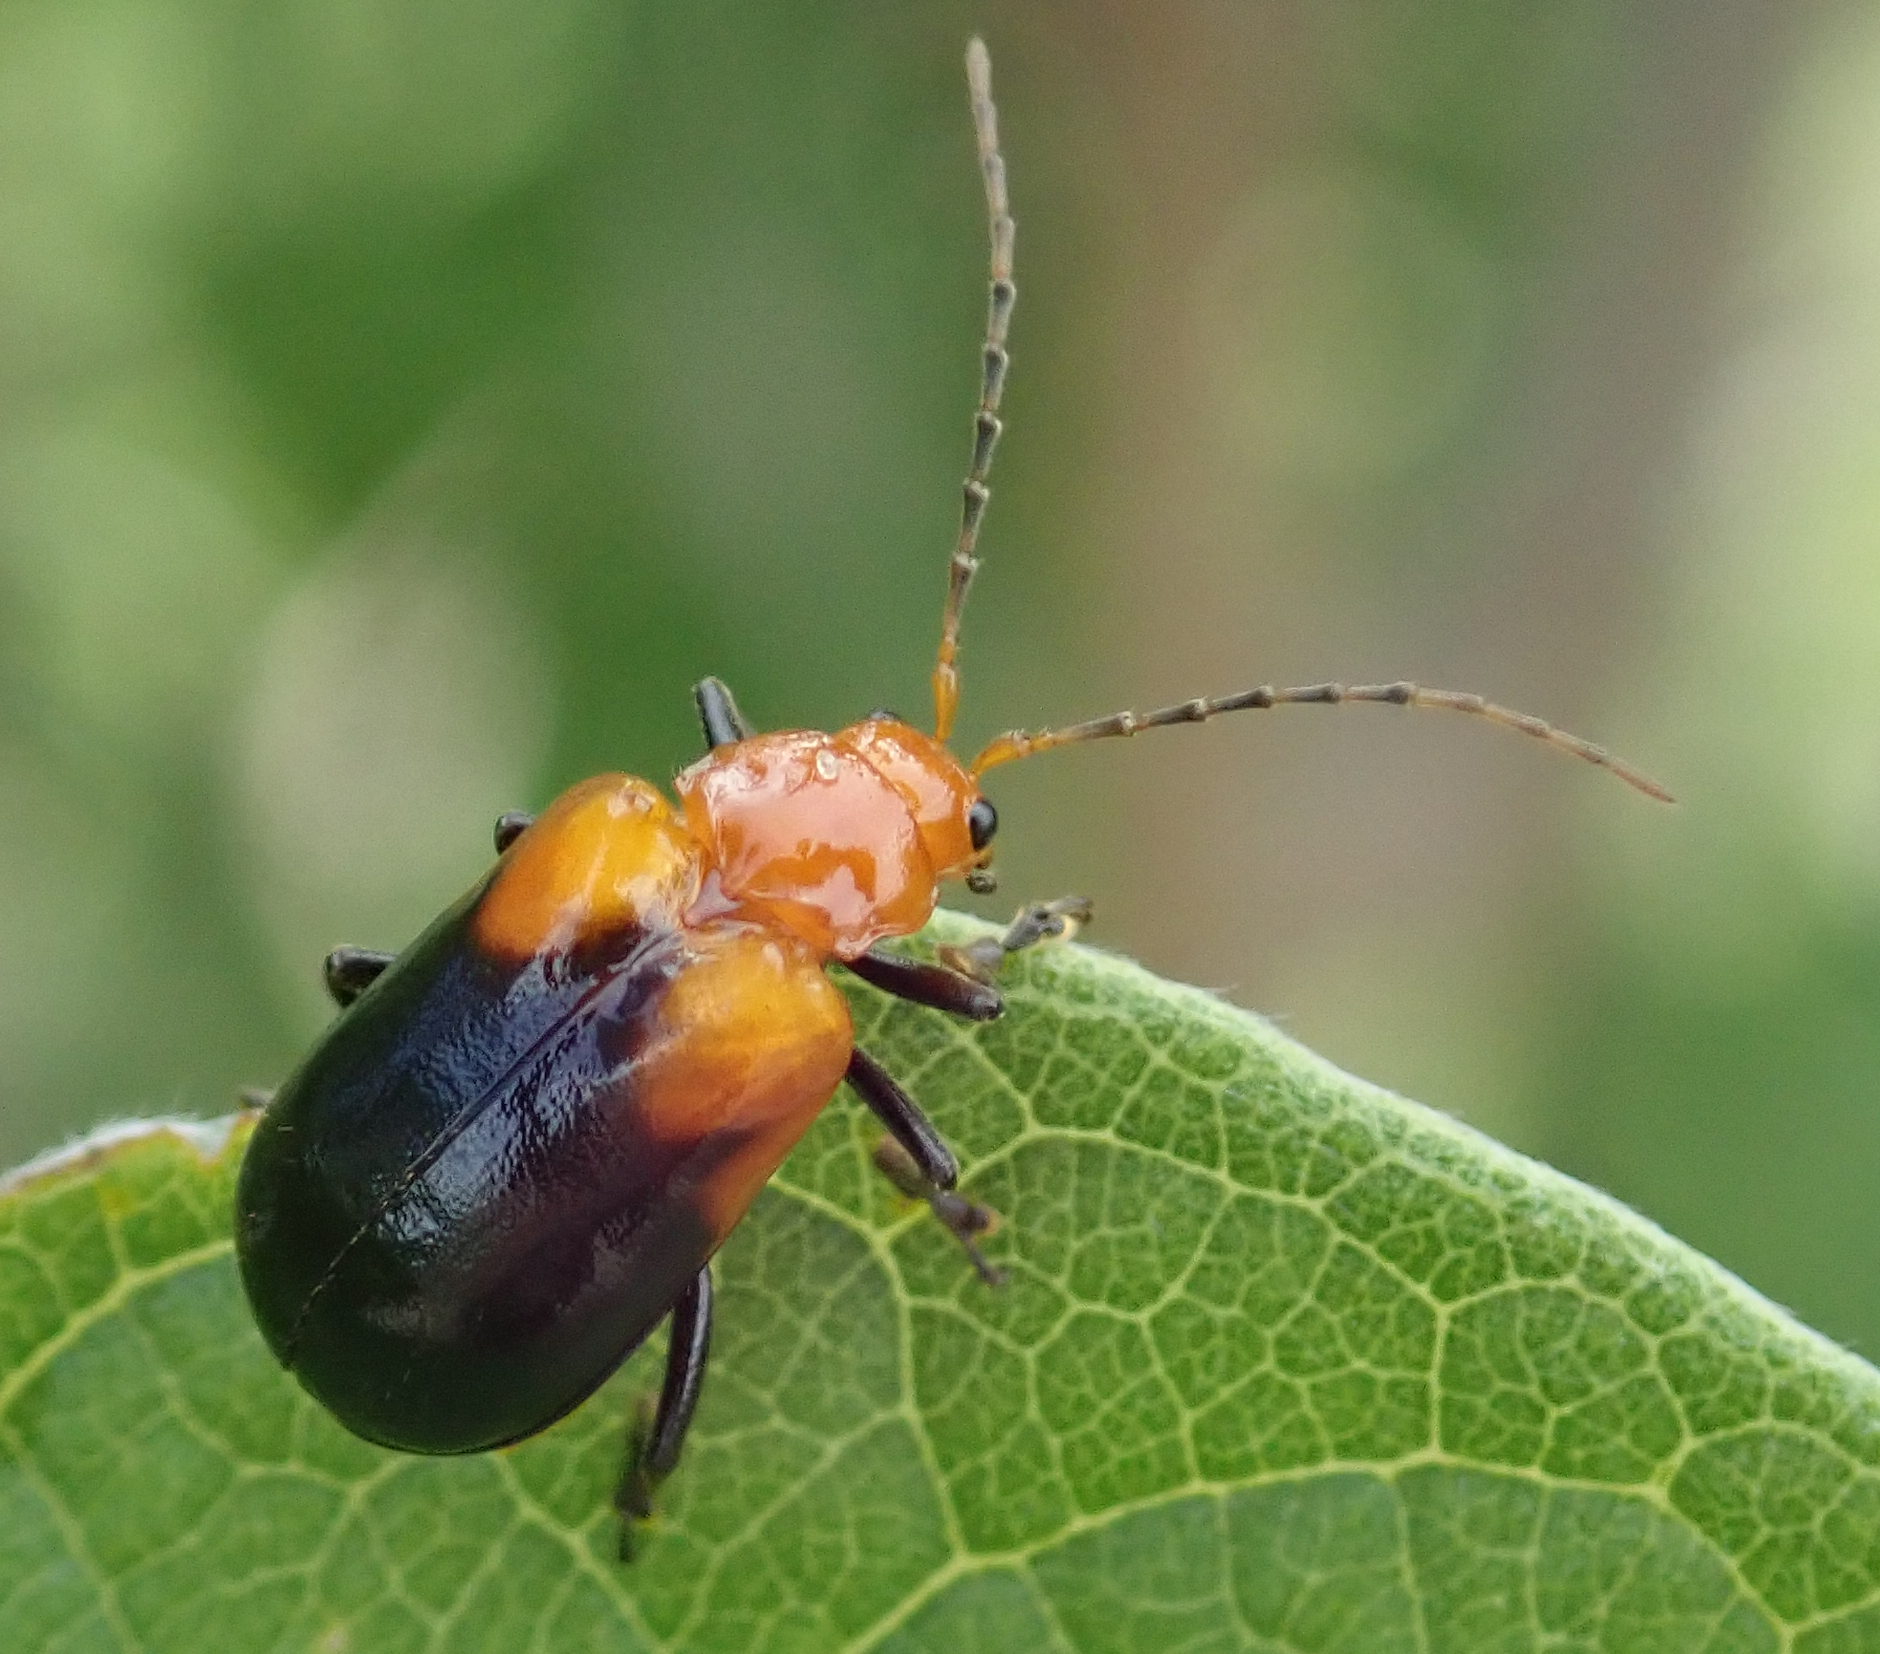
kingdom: Animalia
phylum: Arthropoda
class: Insecta
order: Coleoptera
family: Chrysomelidae
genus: Prosmidia
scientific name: Prosmidia
